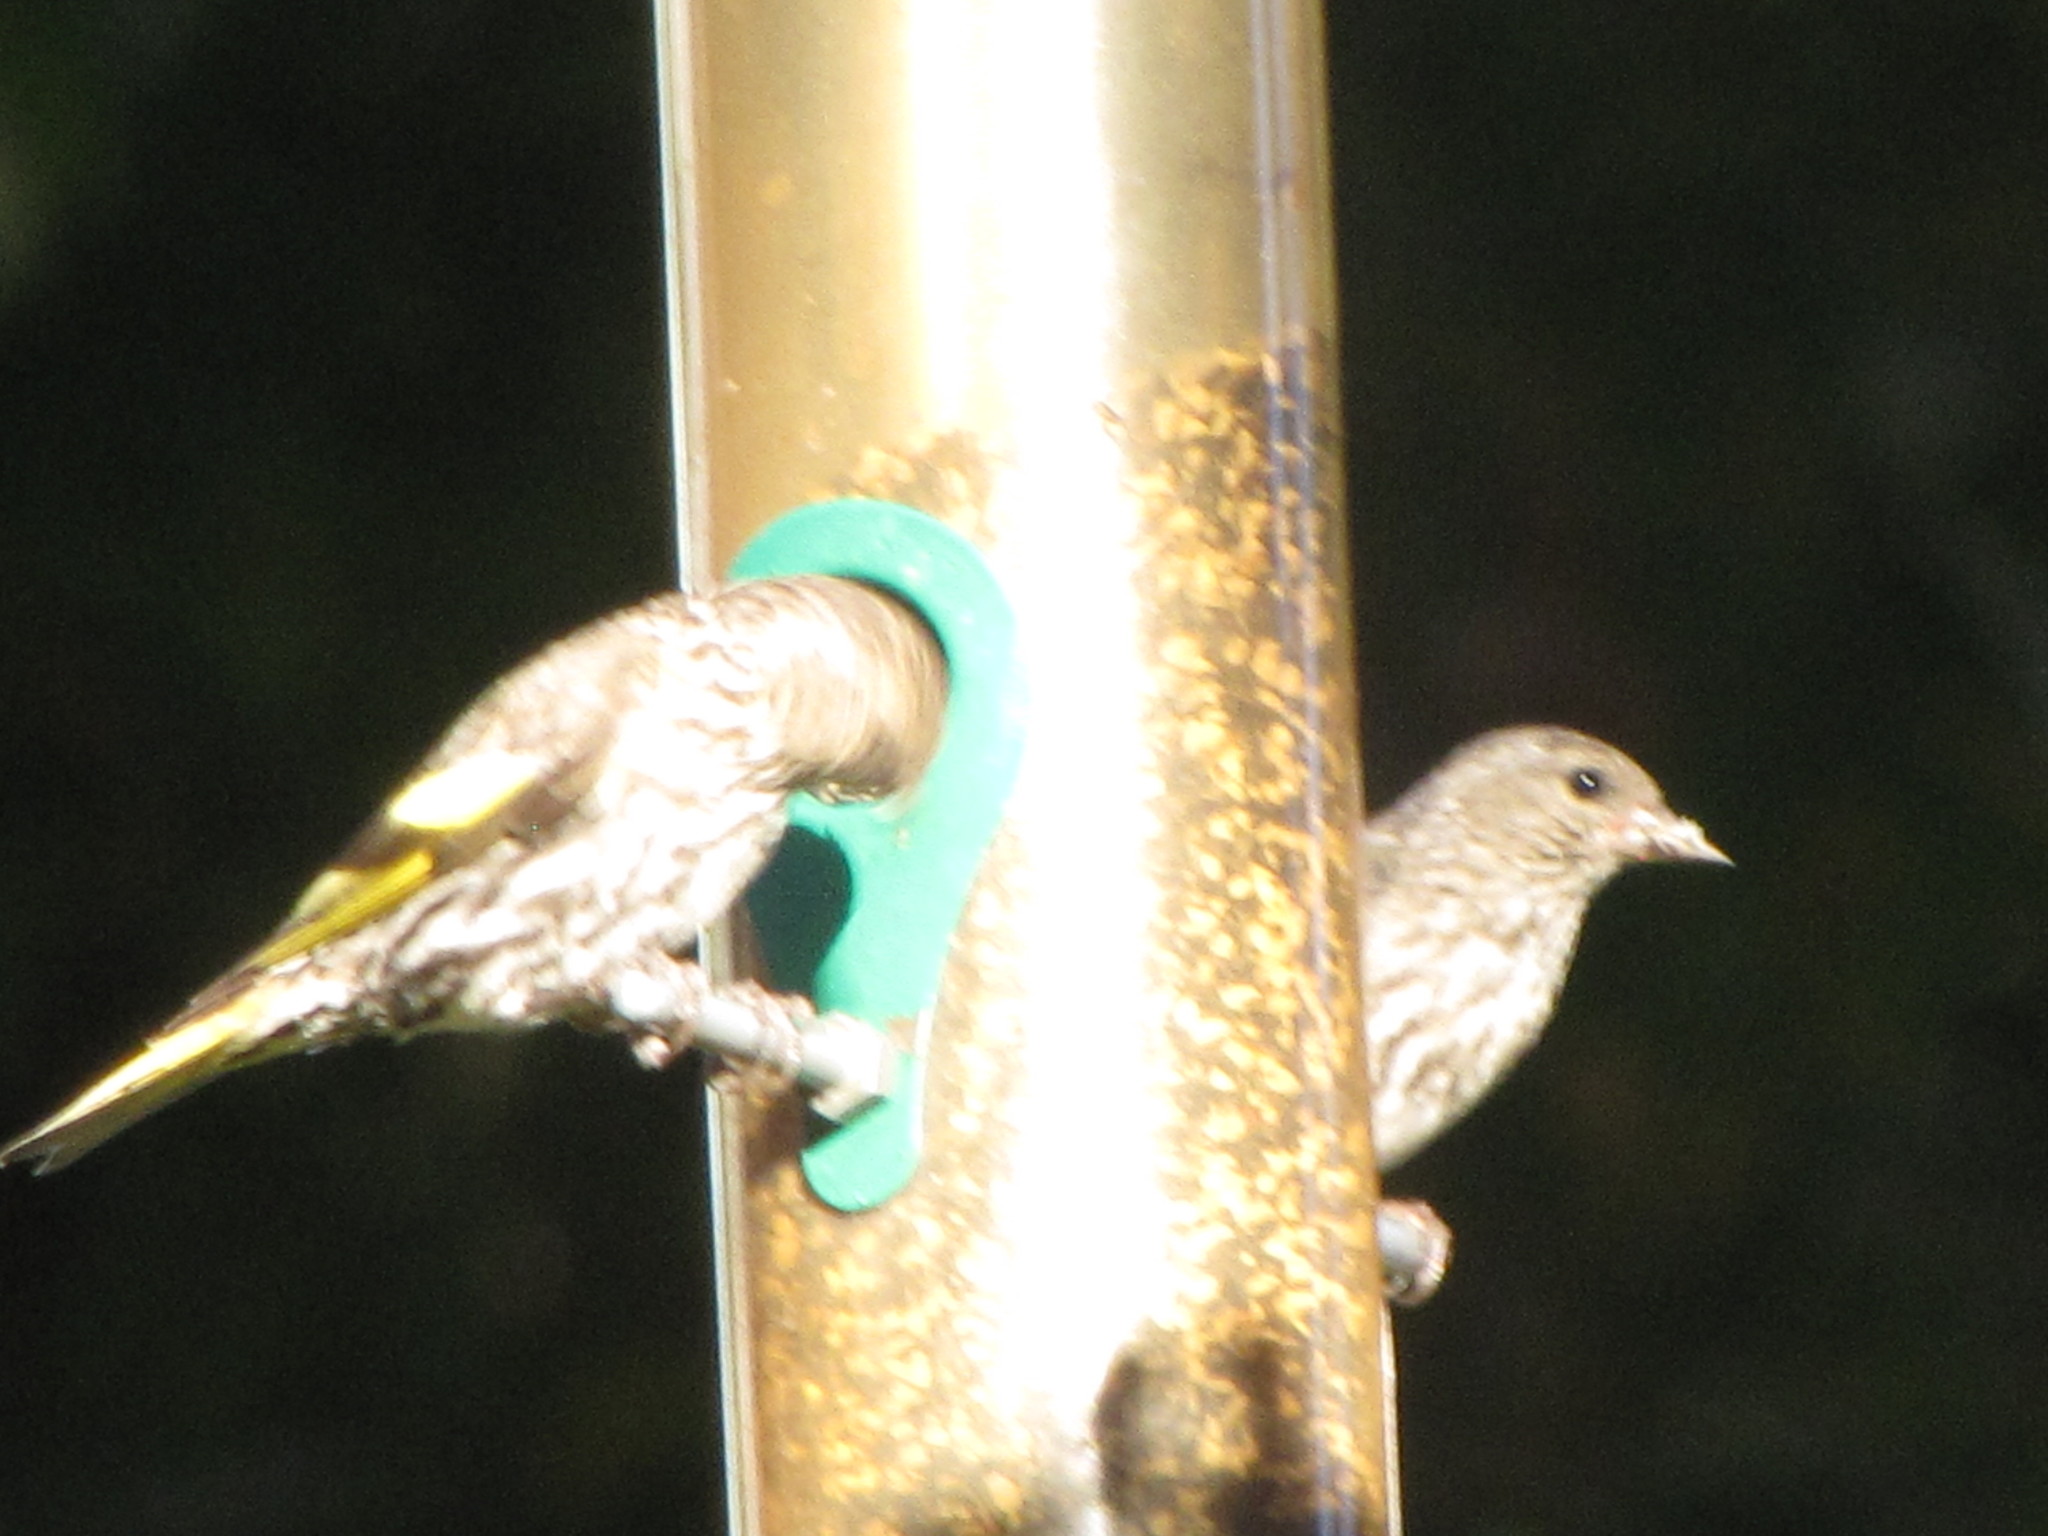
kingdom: Animalia
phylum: Chordata
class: Aves
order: Passeriformes
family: Fringillidae
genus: Spinus
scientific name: Spinus pinus
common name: Pine siskin
